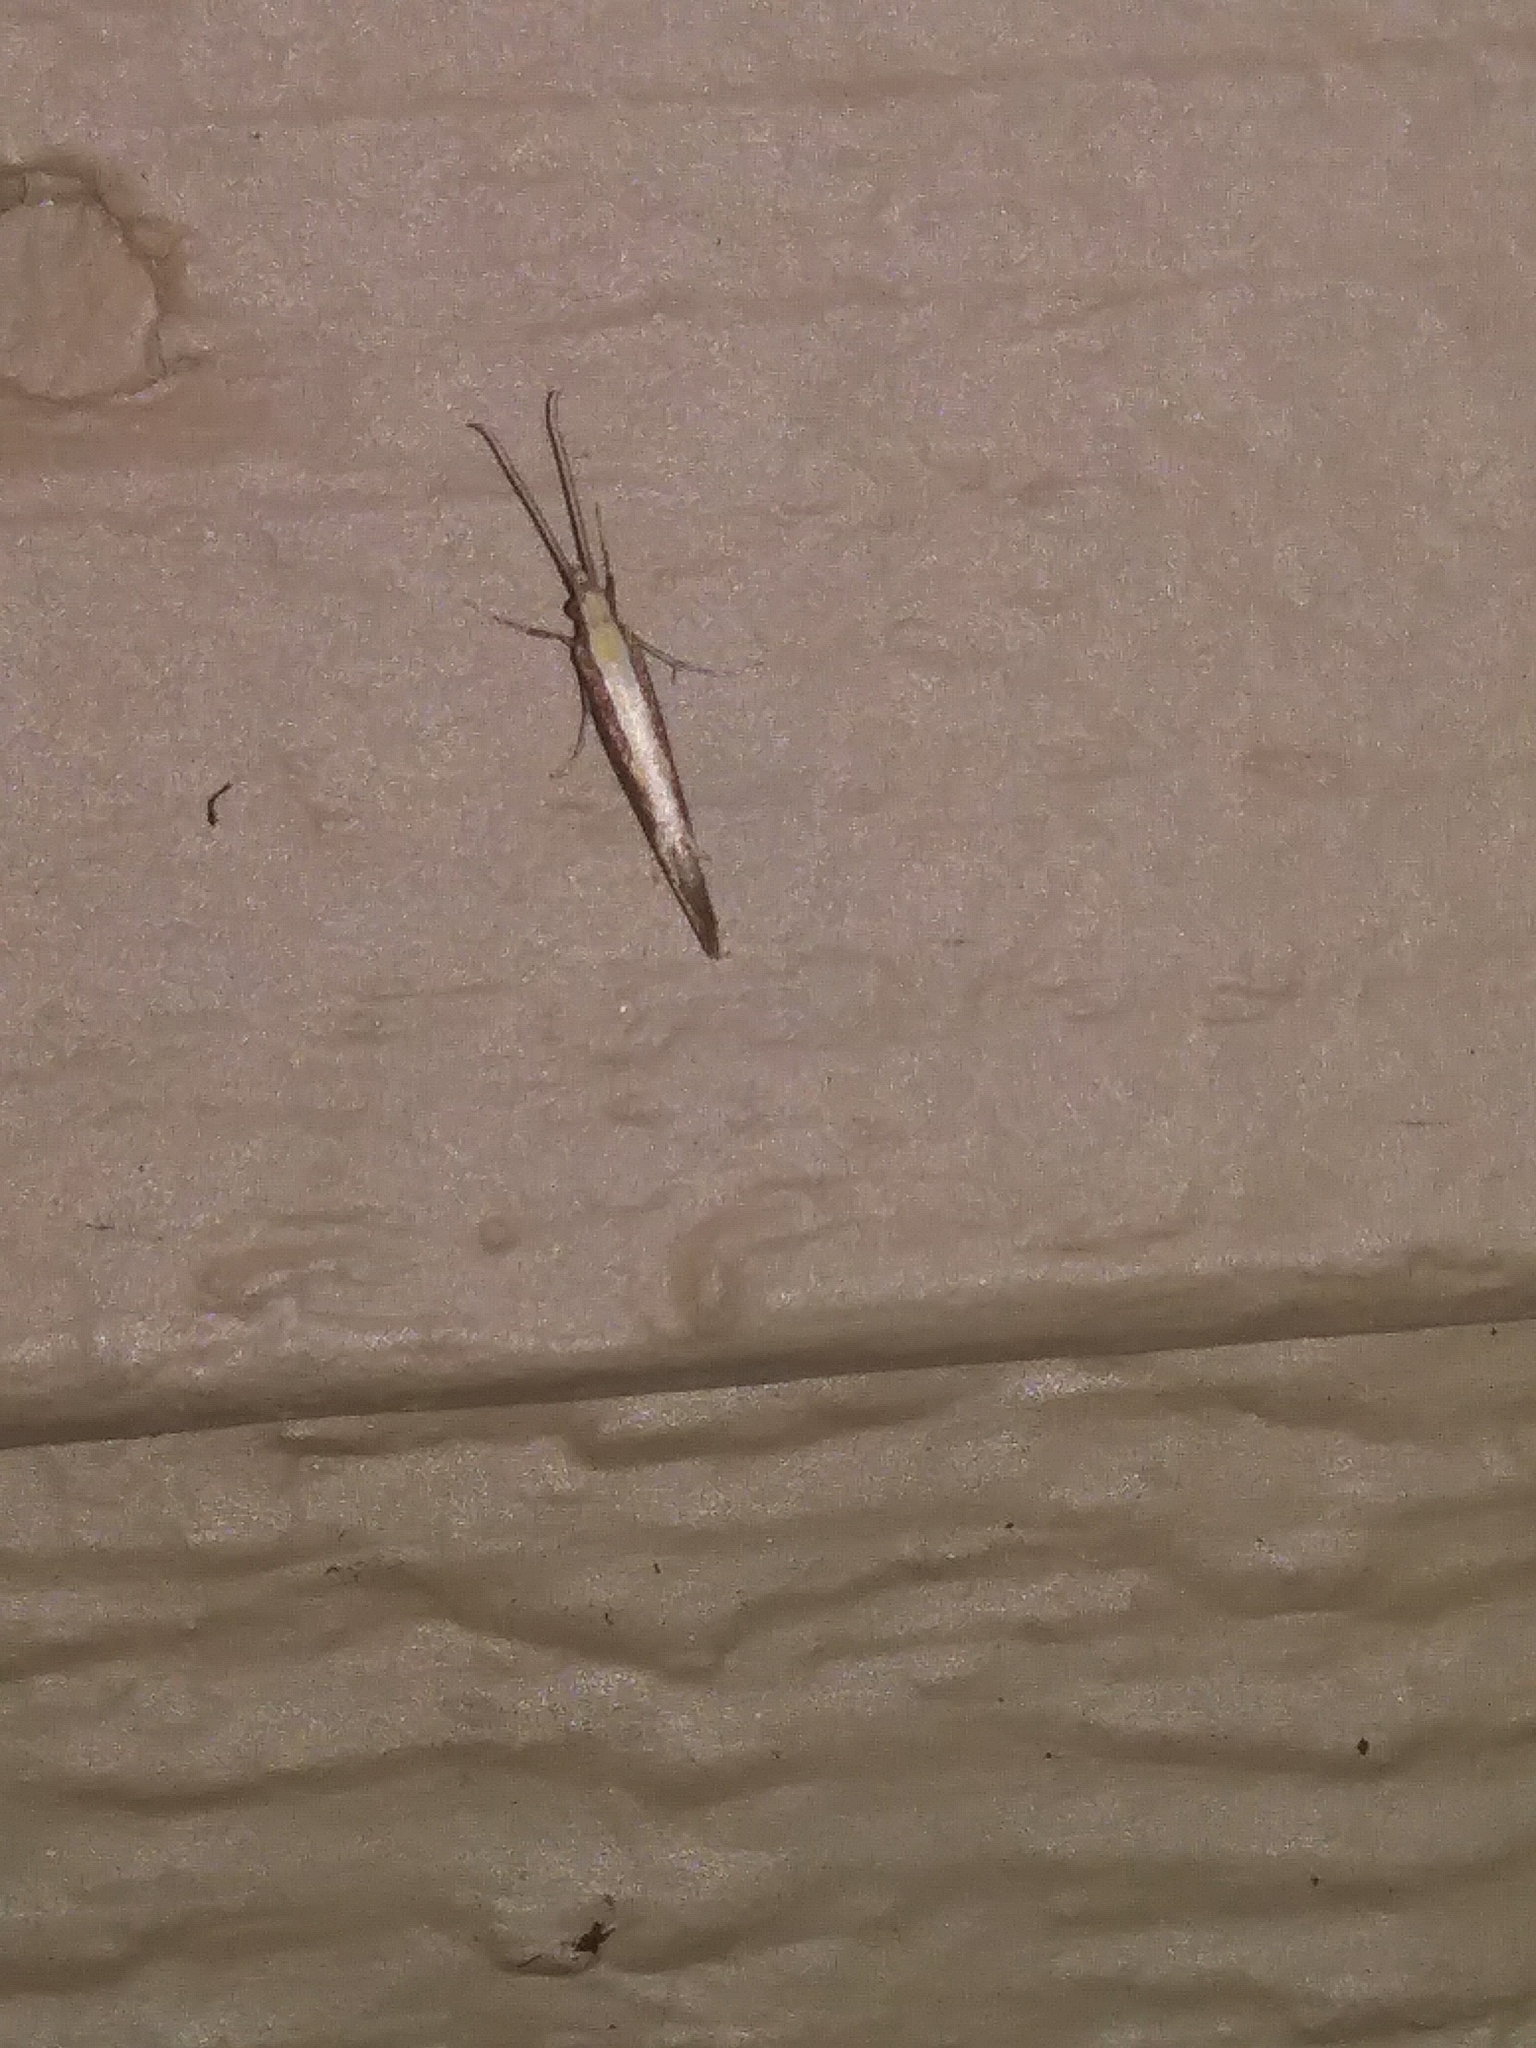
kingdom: Animalia
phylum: Arthropoda
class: Insecta
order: Lepidoptera
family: Plutellidae
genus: Plutella
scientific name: Plutella xylostella
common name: Diamond-back moth
